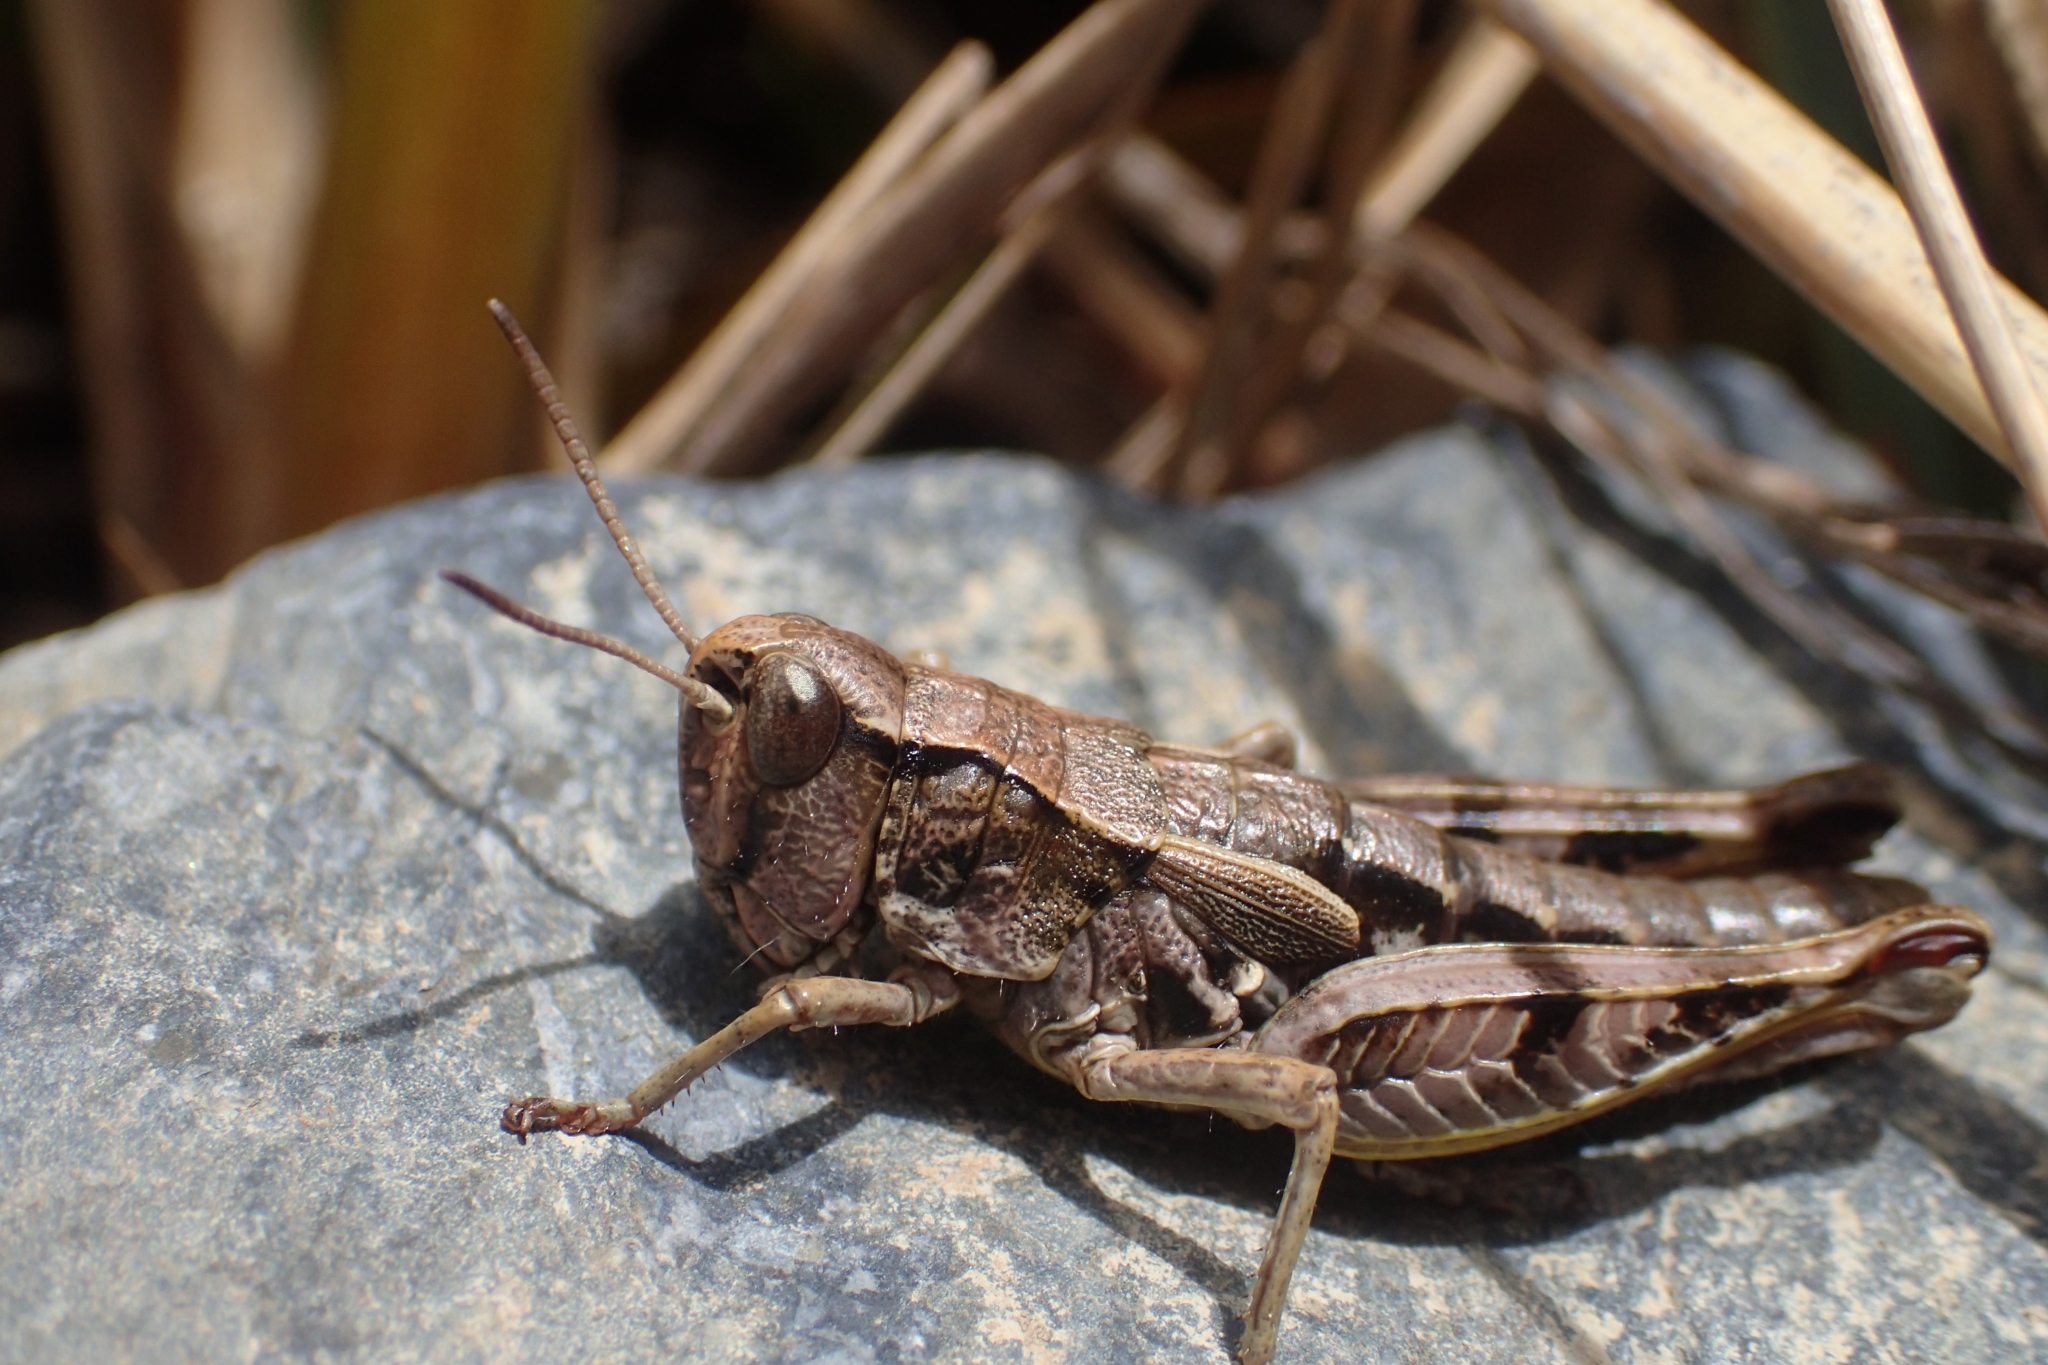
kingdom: Animalia
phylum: Arthropoda
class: Insecta
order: Orthoptera
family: Acrididae
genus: Sigaus
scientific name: Sigaus australis
